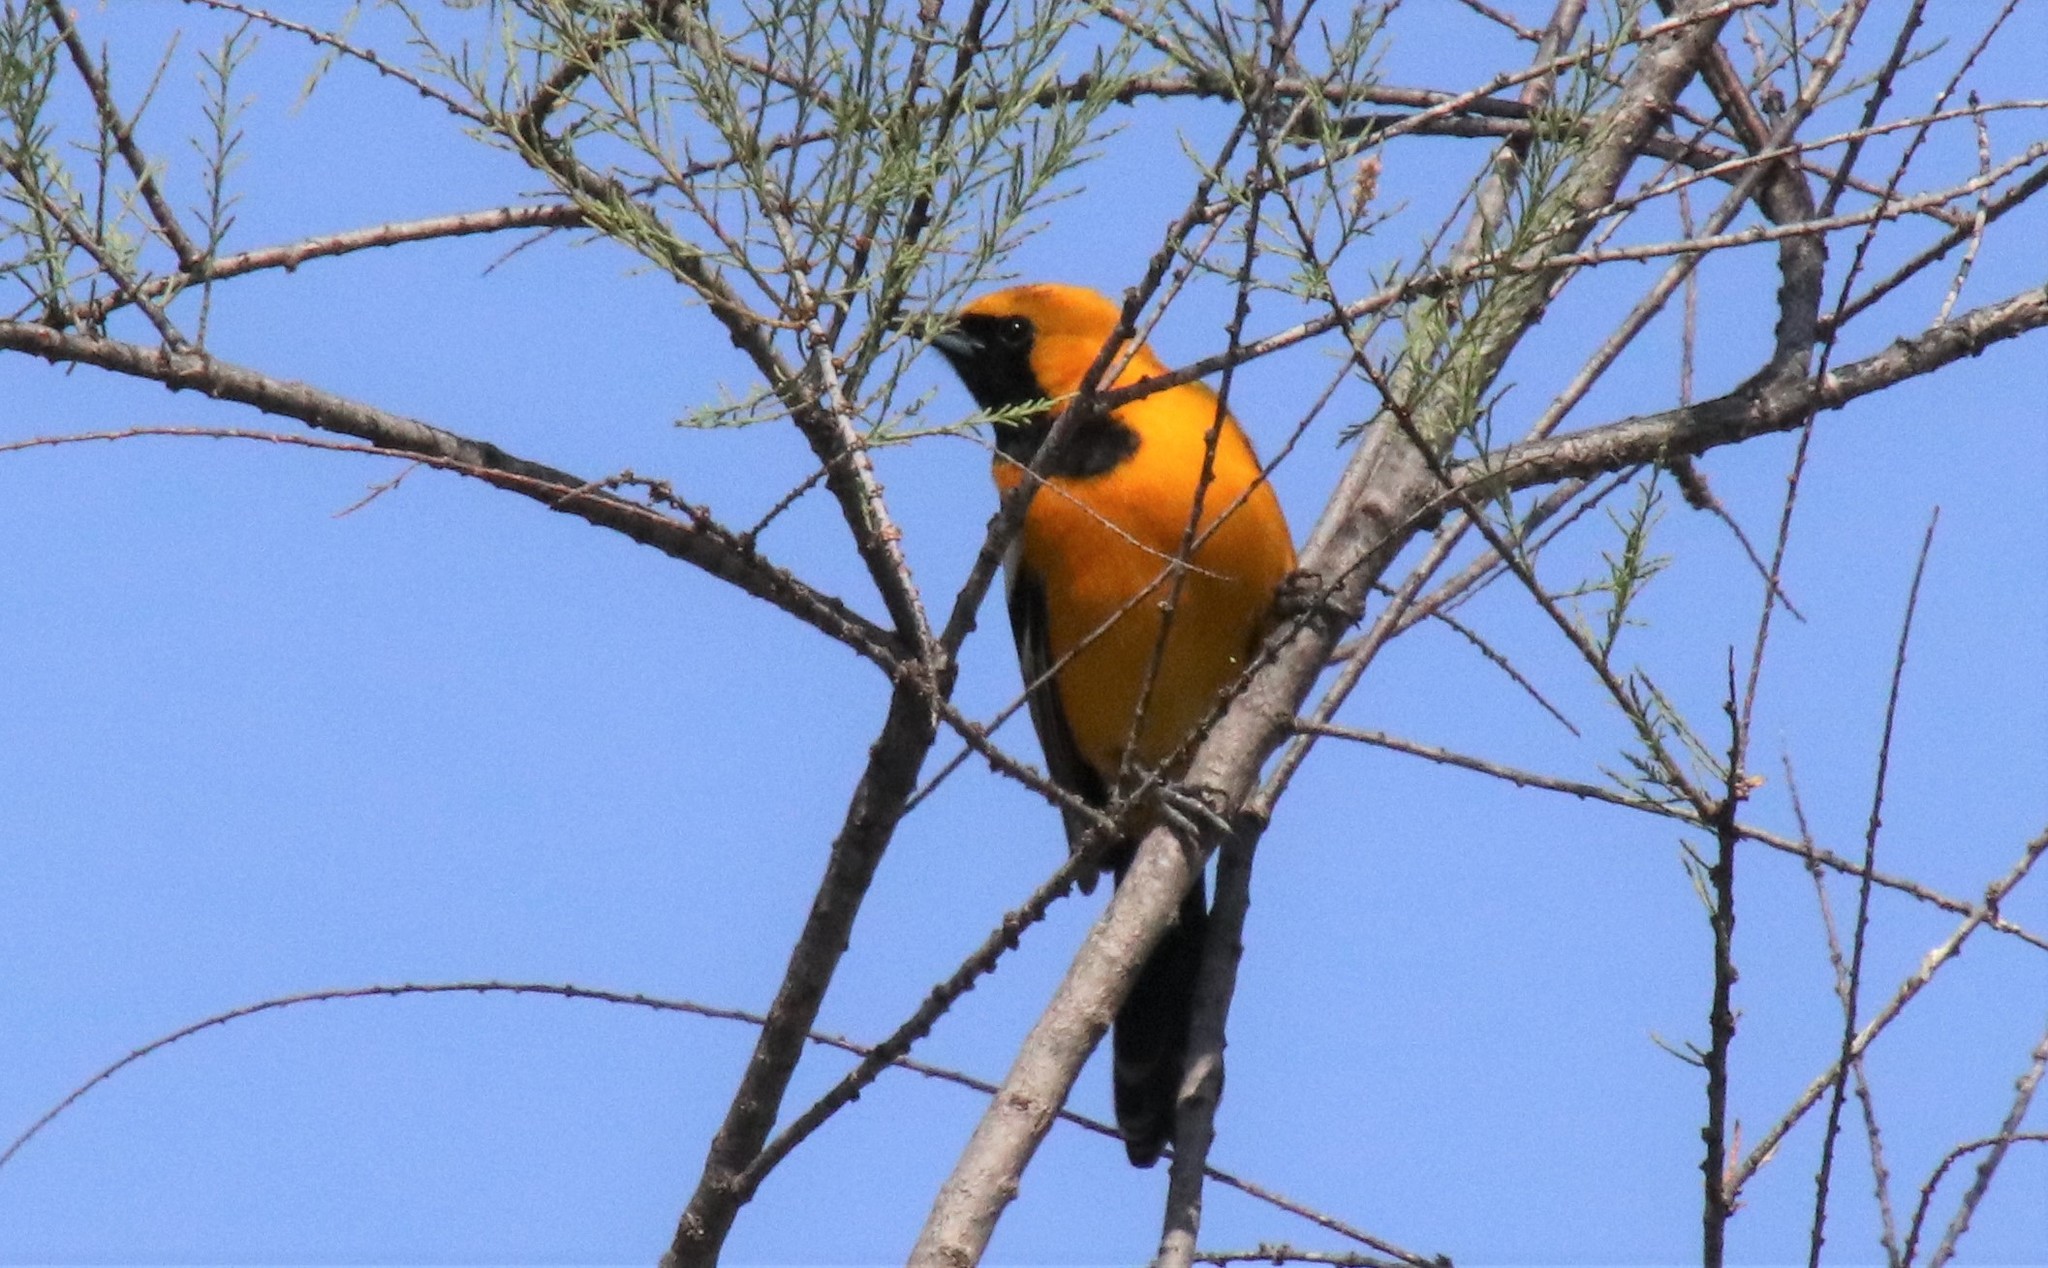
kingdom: Animalia
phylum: Chordata
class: Aves
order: Passeriformes
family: Icteridae
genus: Icterus
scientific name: Icterus cucullatus
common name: Hooded oriole
